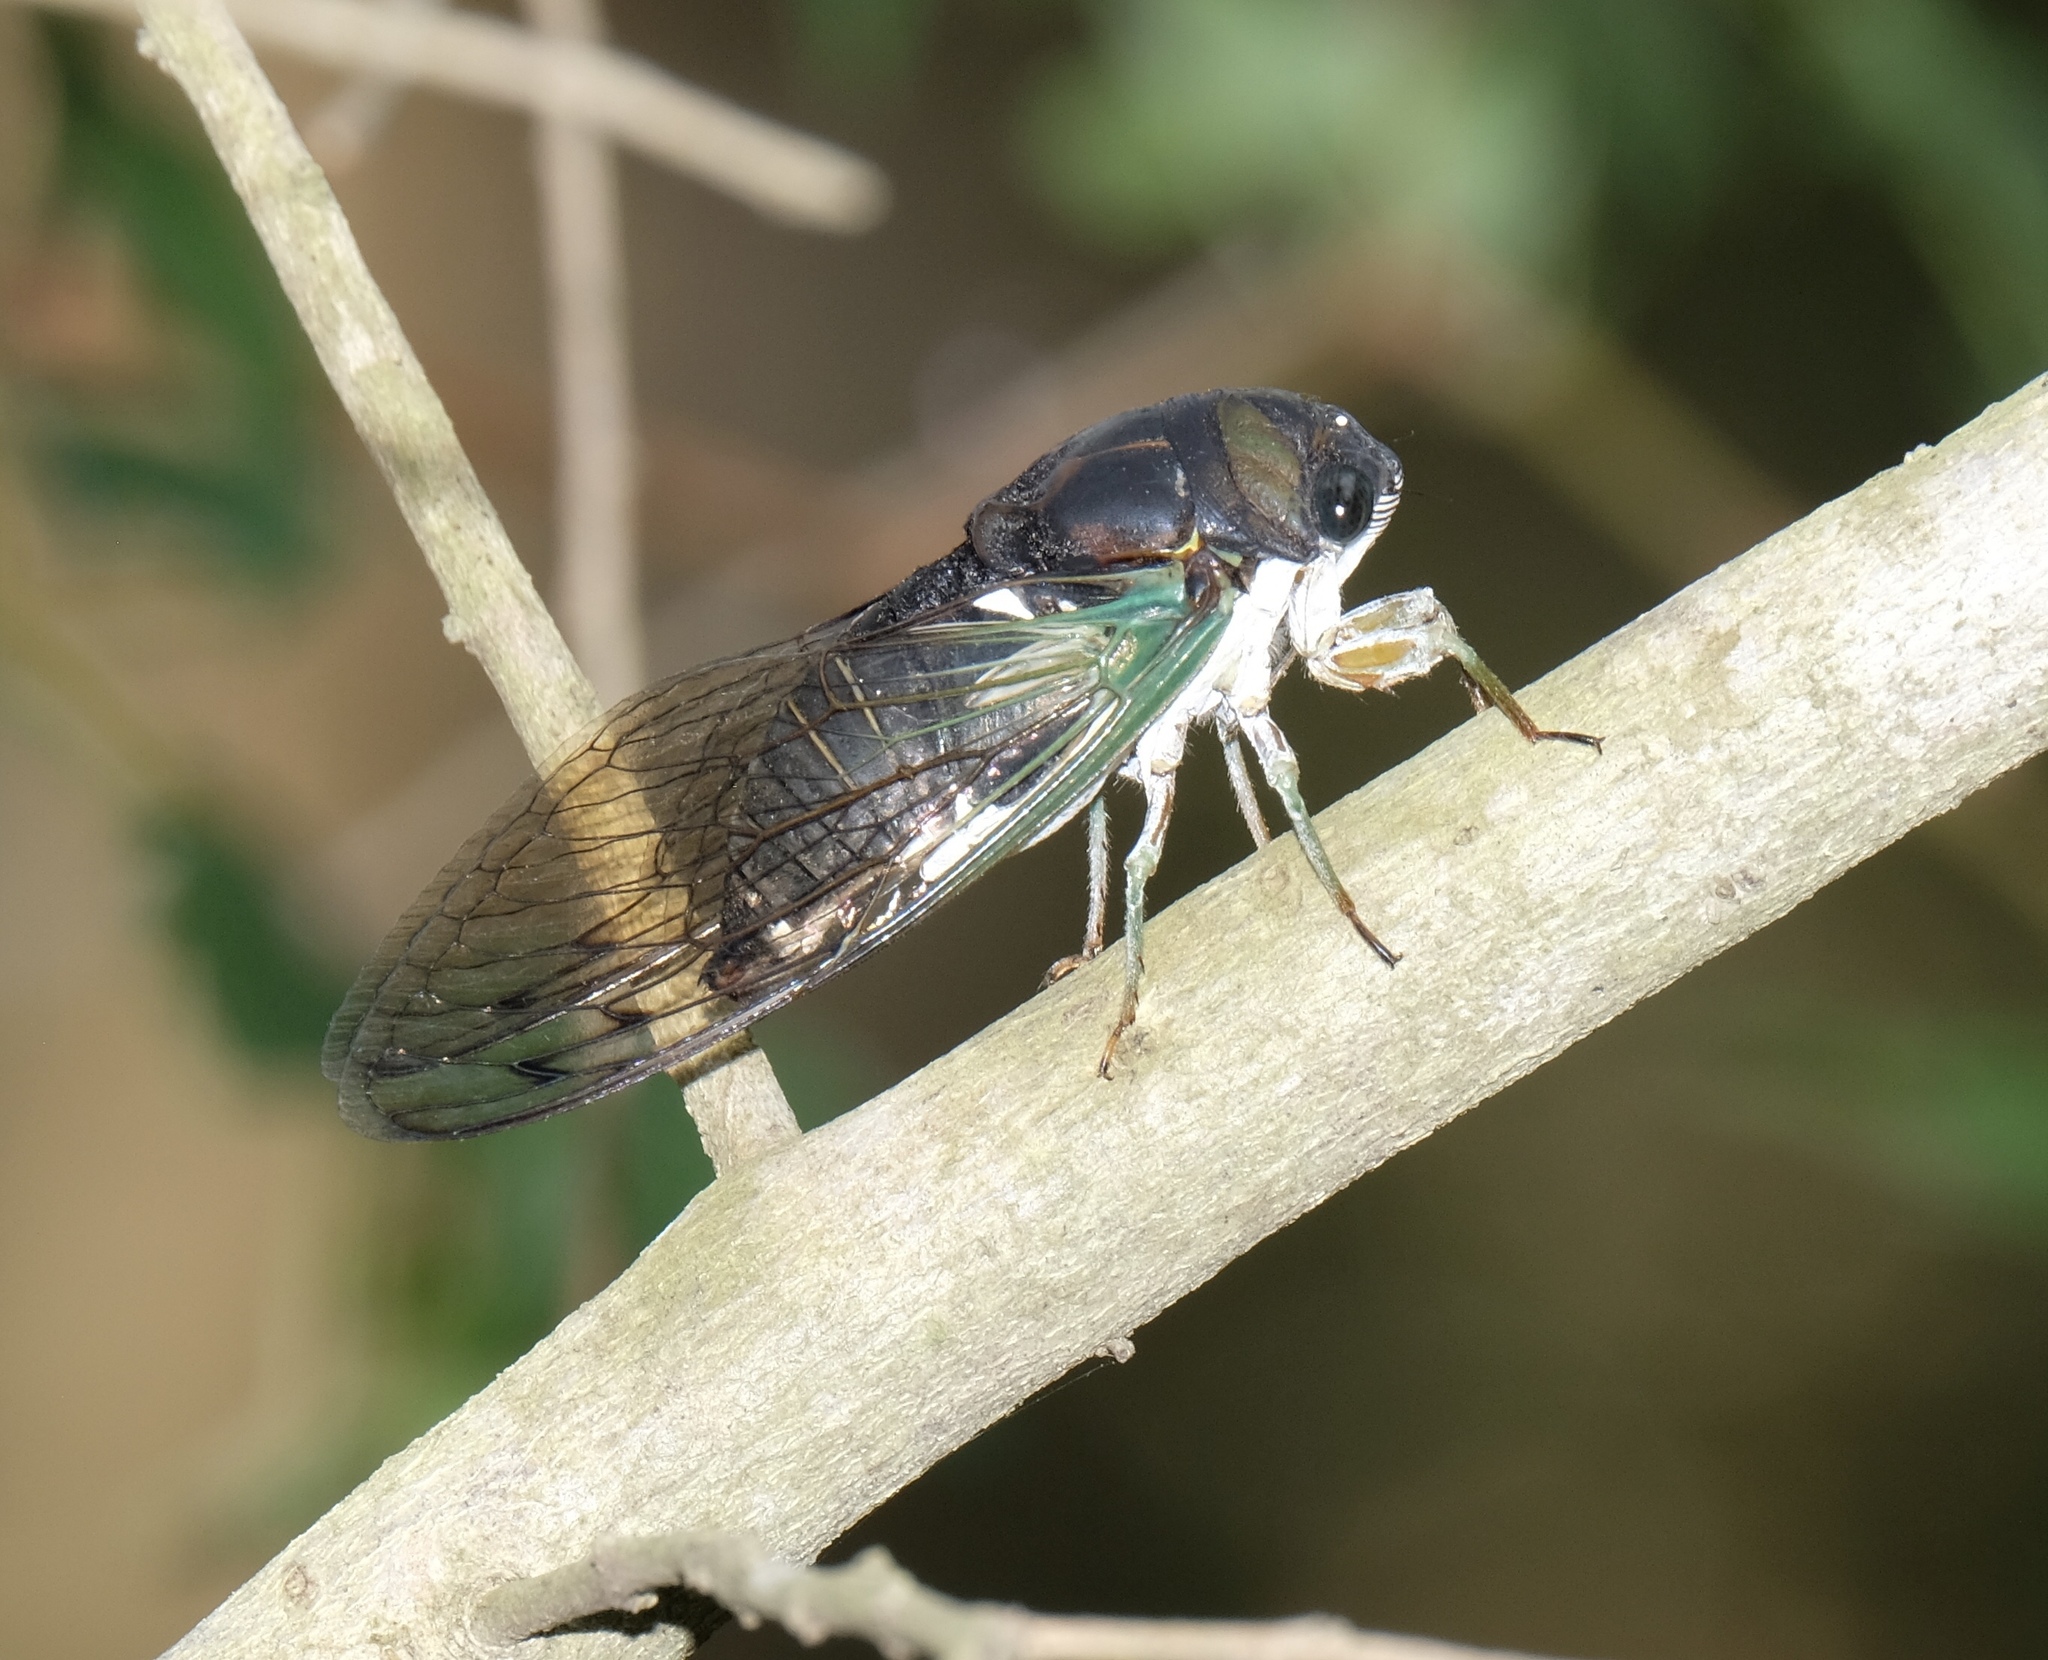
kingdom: Animalia
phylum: Arthropoda
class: Insecta
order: Hemiptera
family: Cicadidae
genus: Neotibicen
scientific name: Neotibicen tibicen
